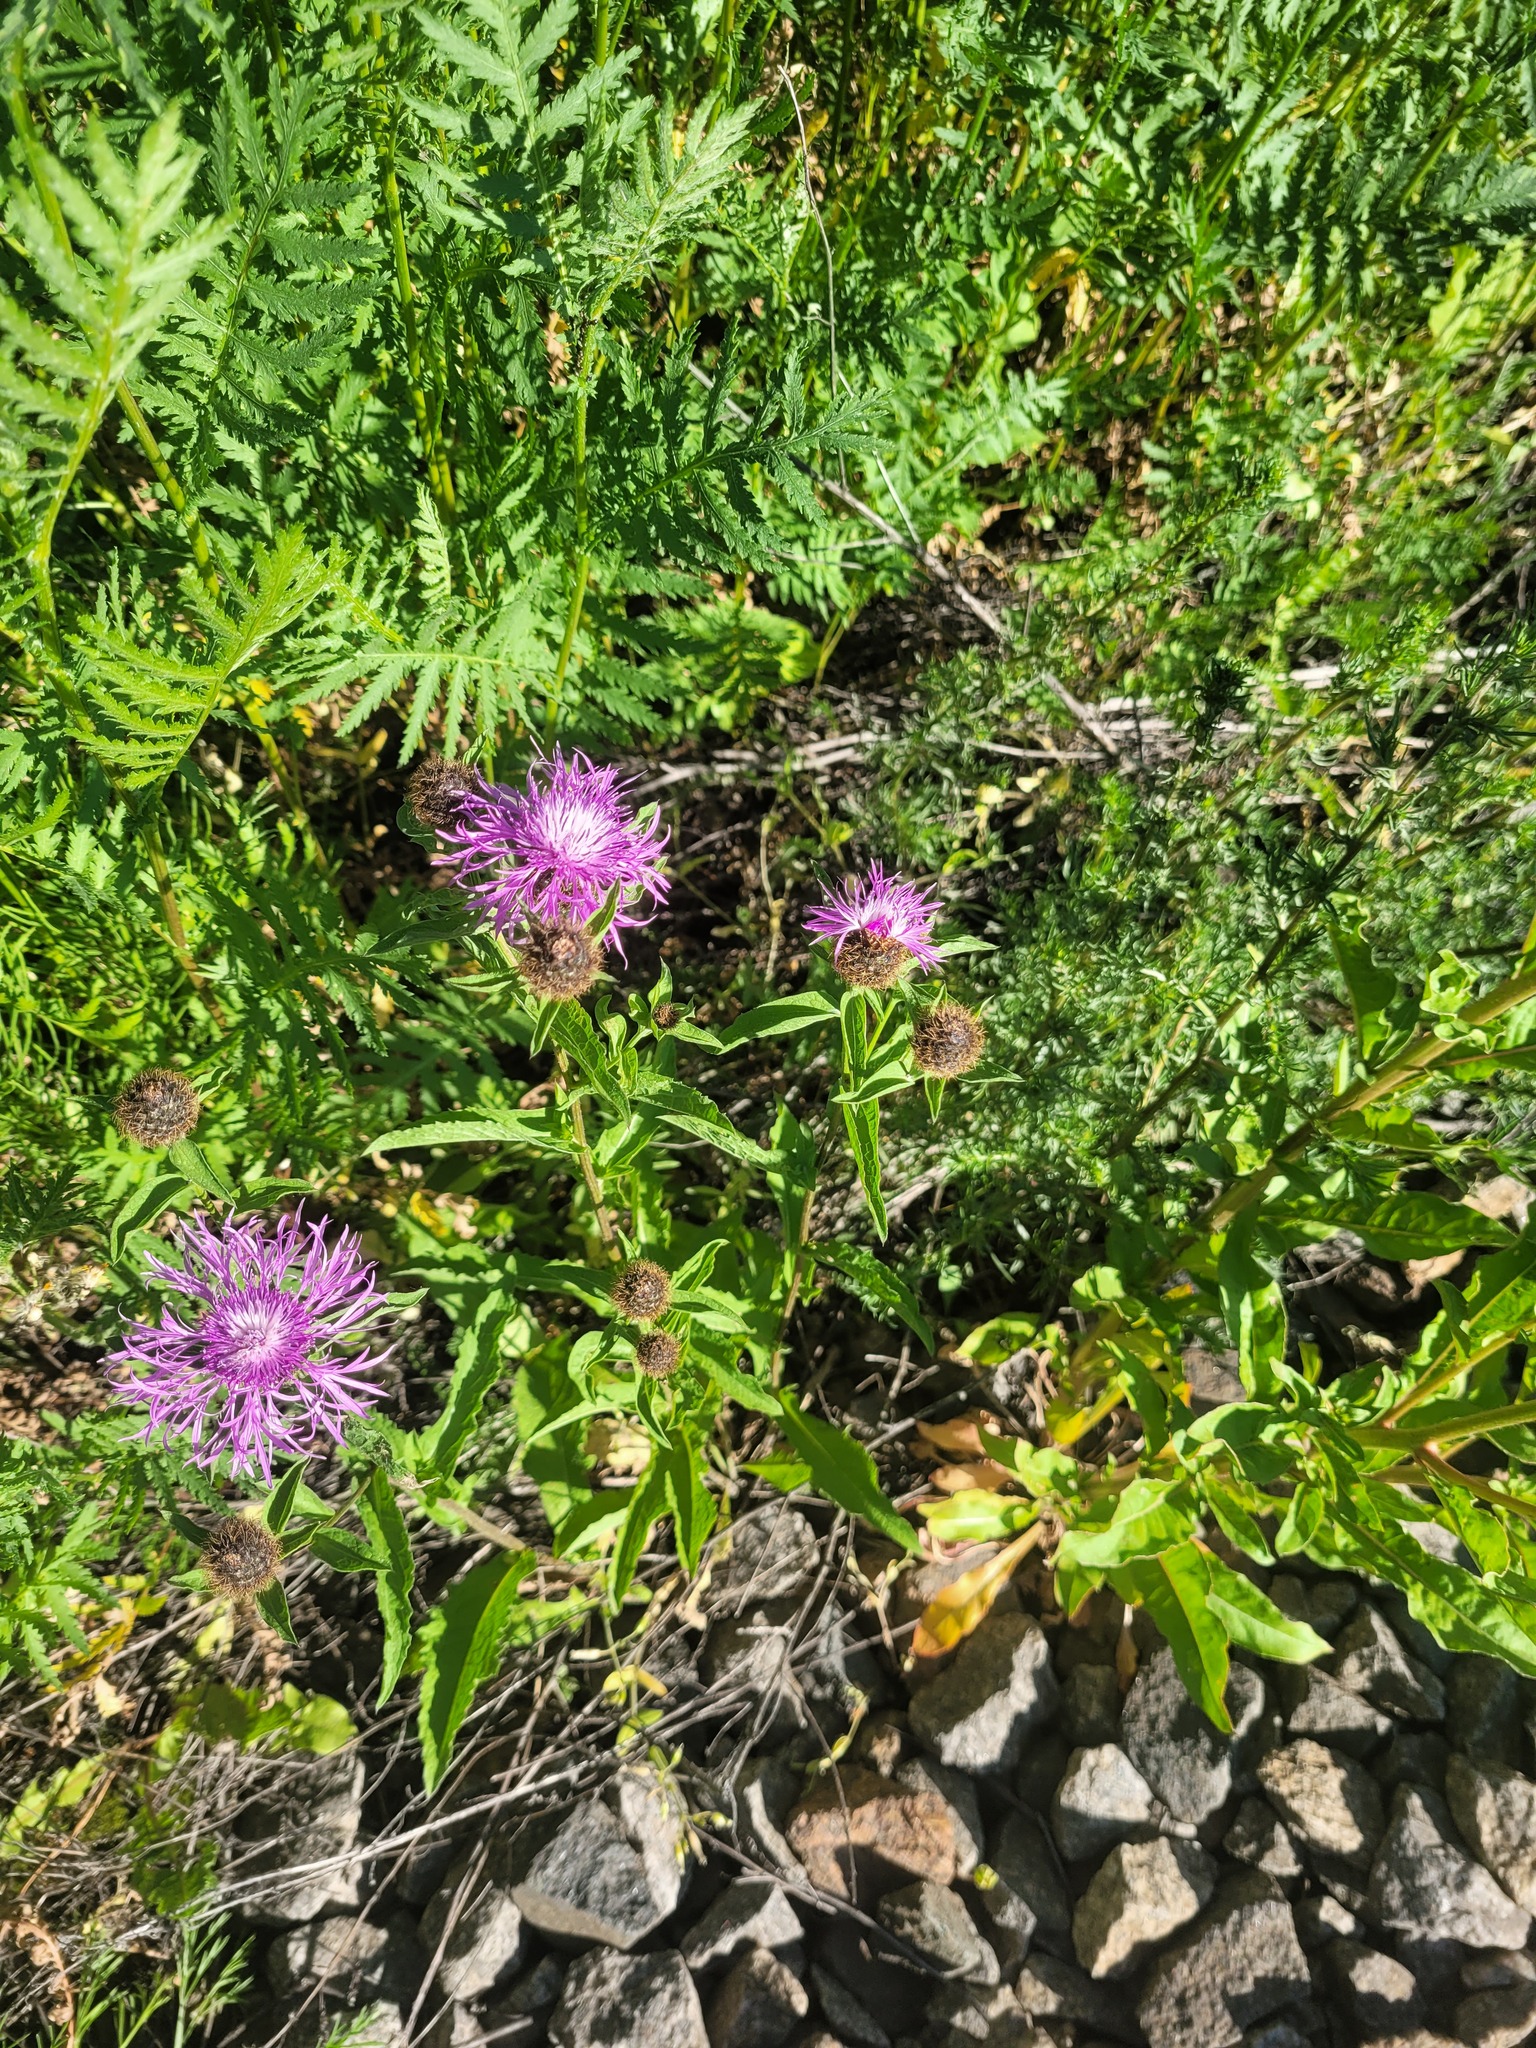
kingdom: Plantae
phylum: Tracheophyta
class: Magnoliopsida
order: Asterales
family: Asteraceae
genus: Centaurea
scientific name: Centaurea pseudophrygia
